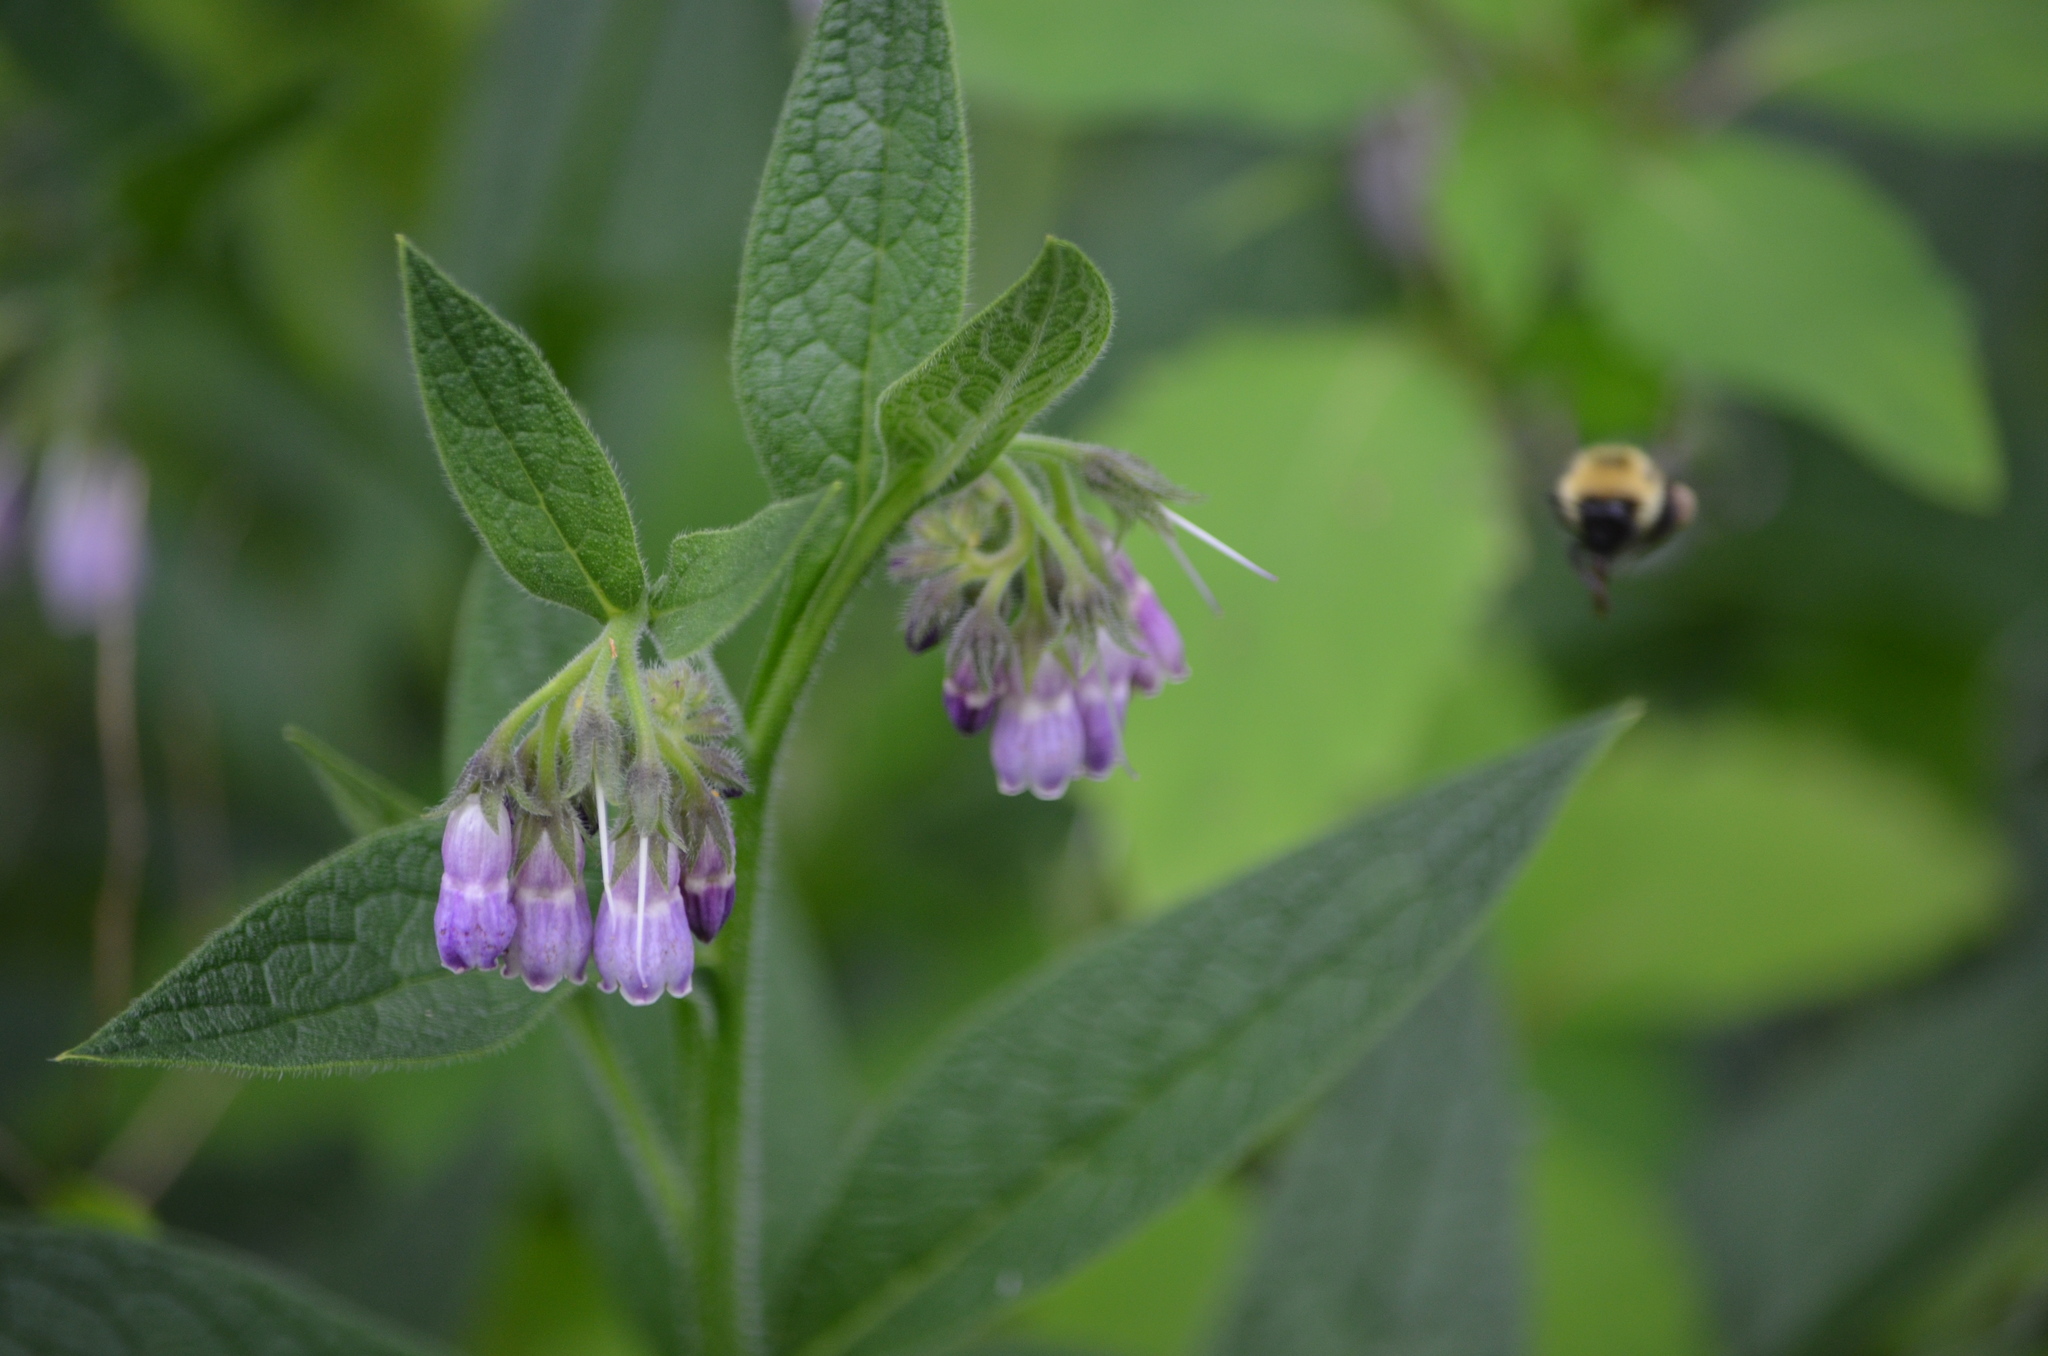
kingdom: Plantae
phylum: Tracheophyta
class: Magnoliopsida
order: Boraginales
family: Boraginaceae
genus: Symphytum
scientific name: Symphytum officinale
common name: Common comfrey
